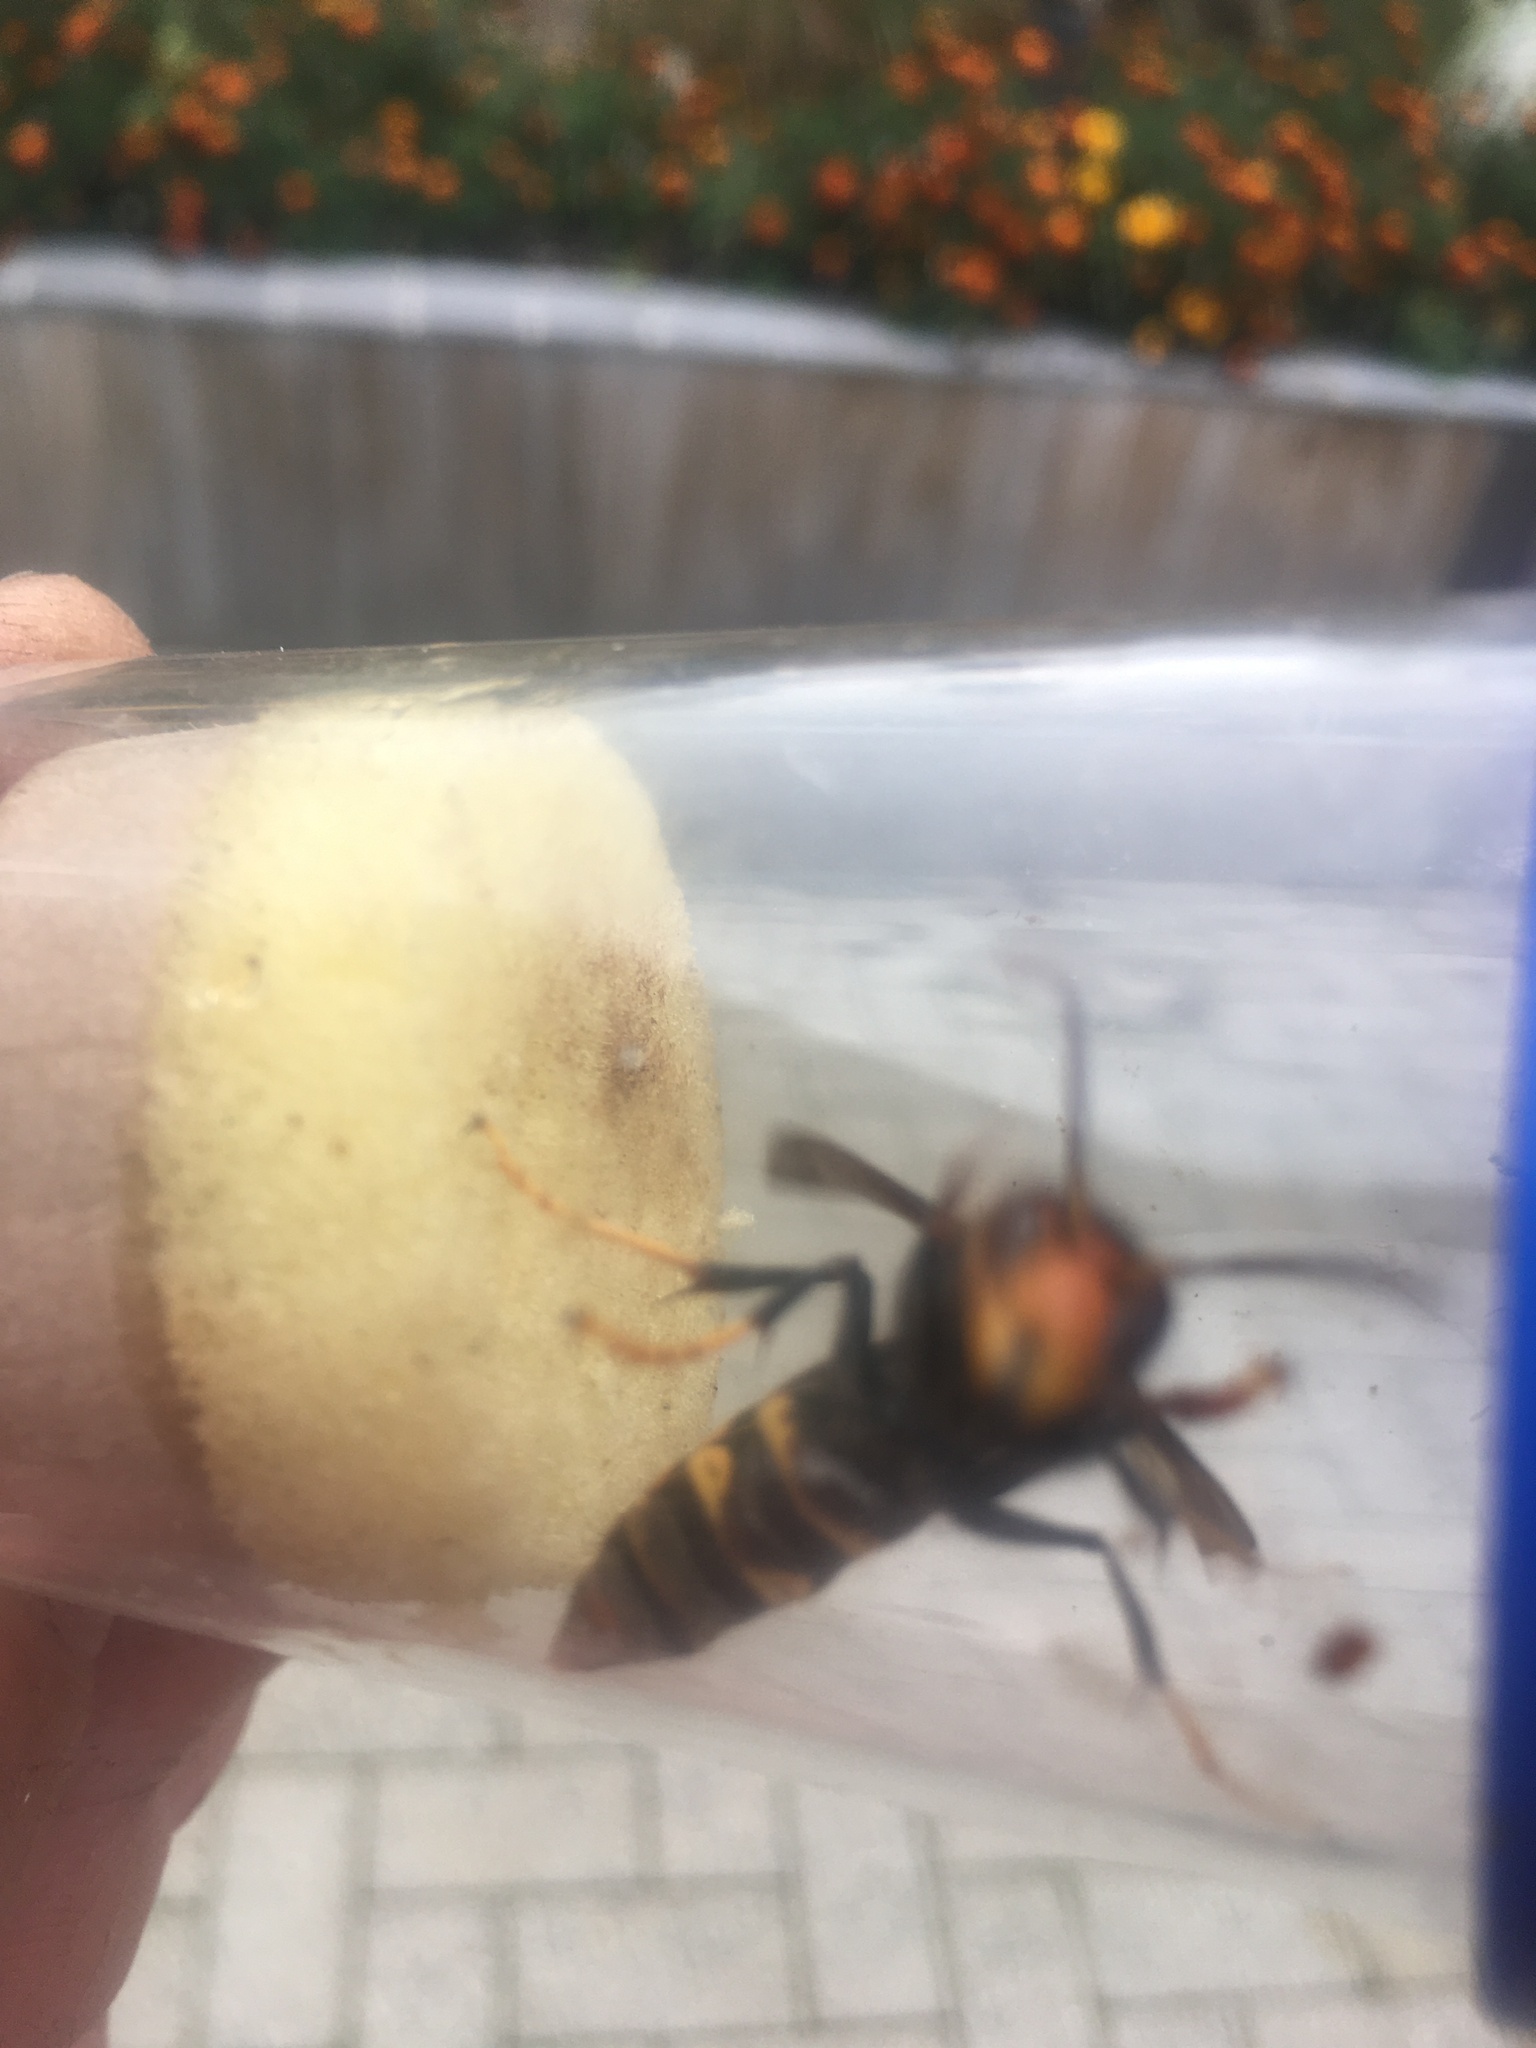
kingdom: Animalia
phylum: Arthropoda
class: Insecta
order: Hymenoptera
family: Vespidae
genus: Vespa
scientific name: Vespa velutina
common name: Asian hornet
